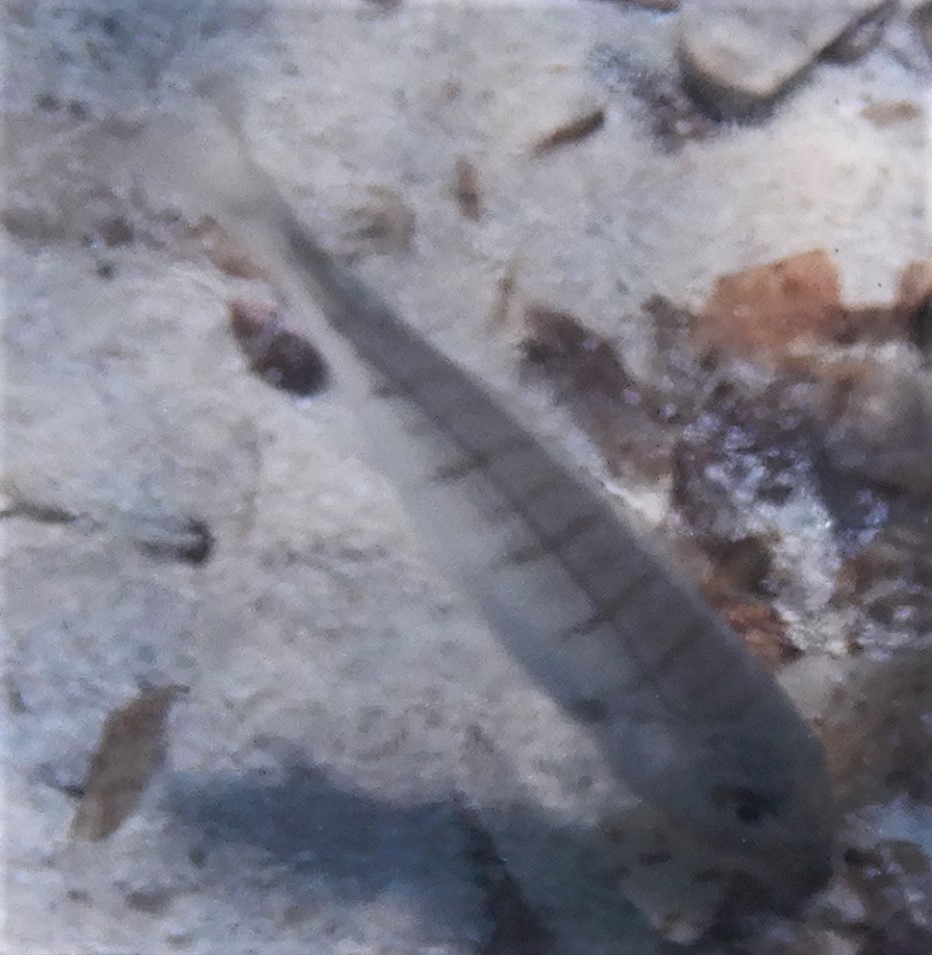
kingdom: Animalia
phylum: Chordata
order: Perciformes
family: Sparidae
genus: Lithognathus
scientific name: Lithognathus mormyrus
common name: Sand steenbras
